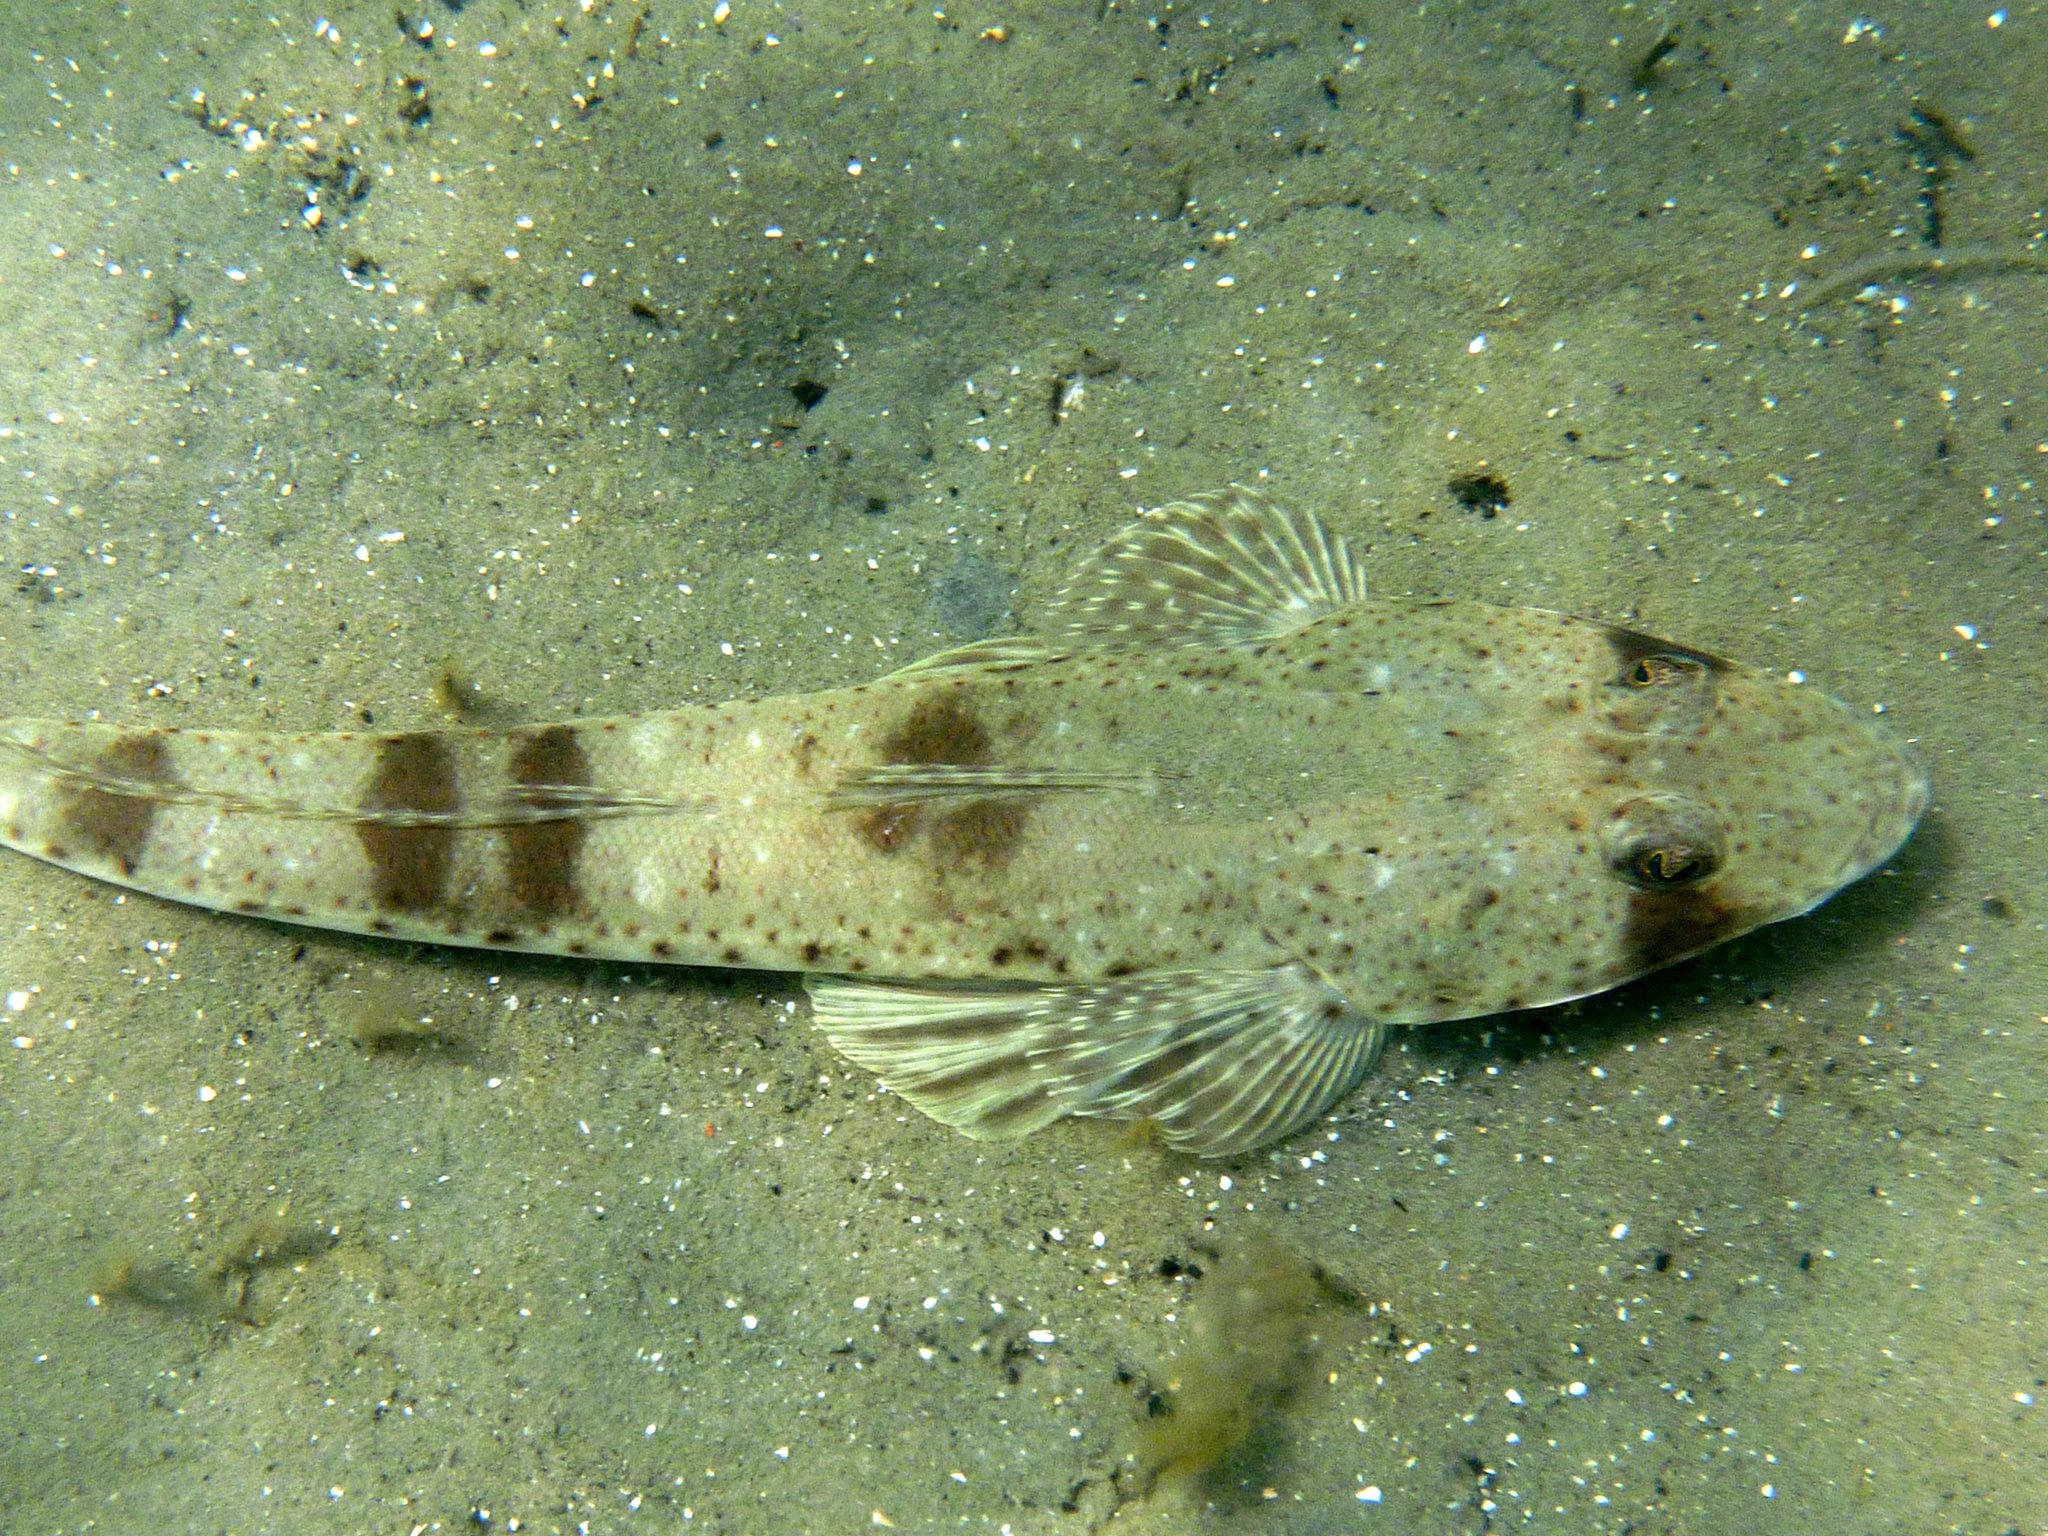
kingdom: Animalia
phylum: Chordata
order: Scorpaeniformes
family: Platycephalidae
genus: Platycephalus
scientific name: Platycephalus bassensis
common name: Sand flathead
